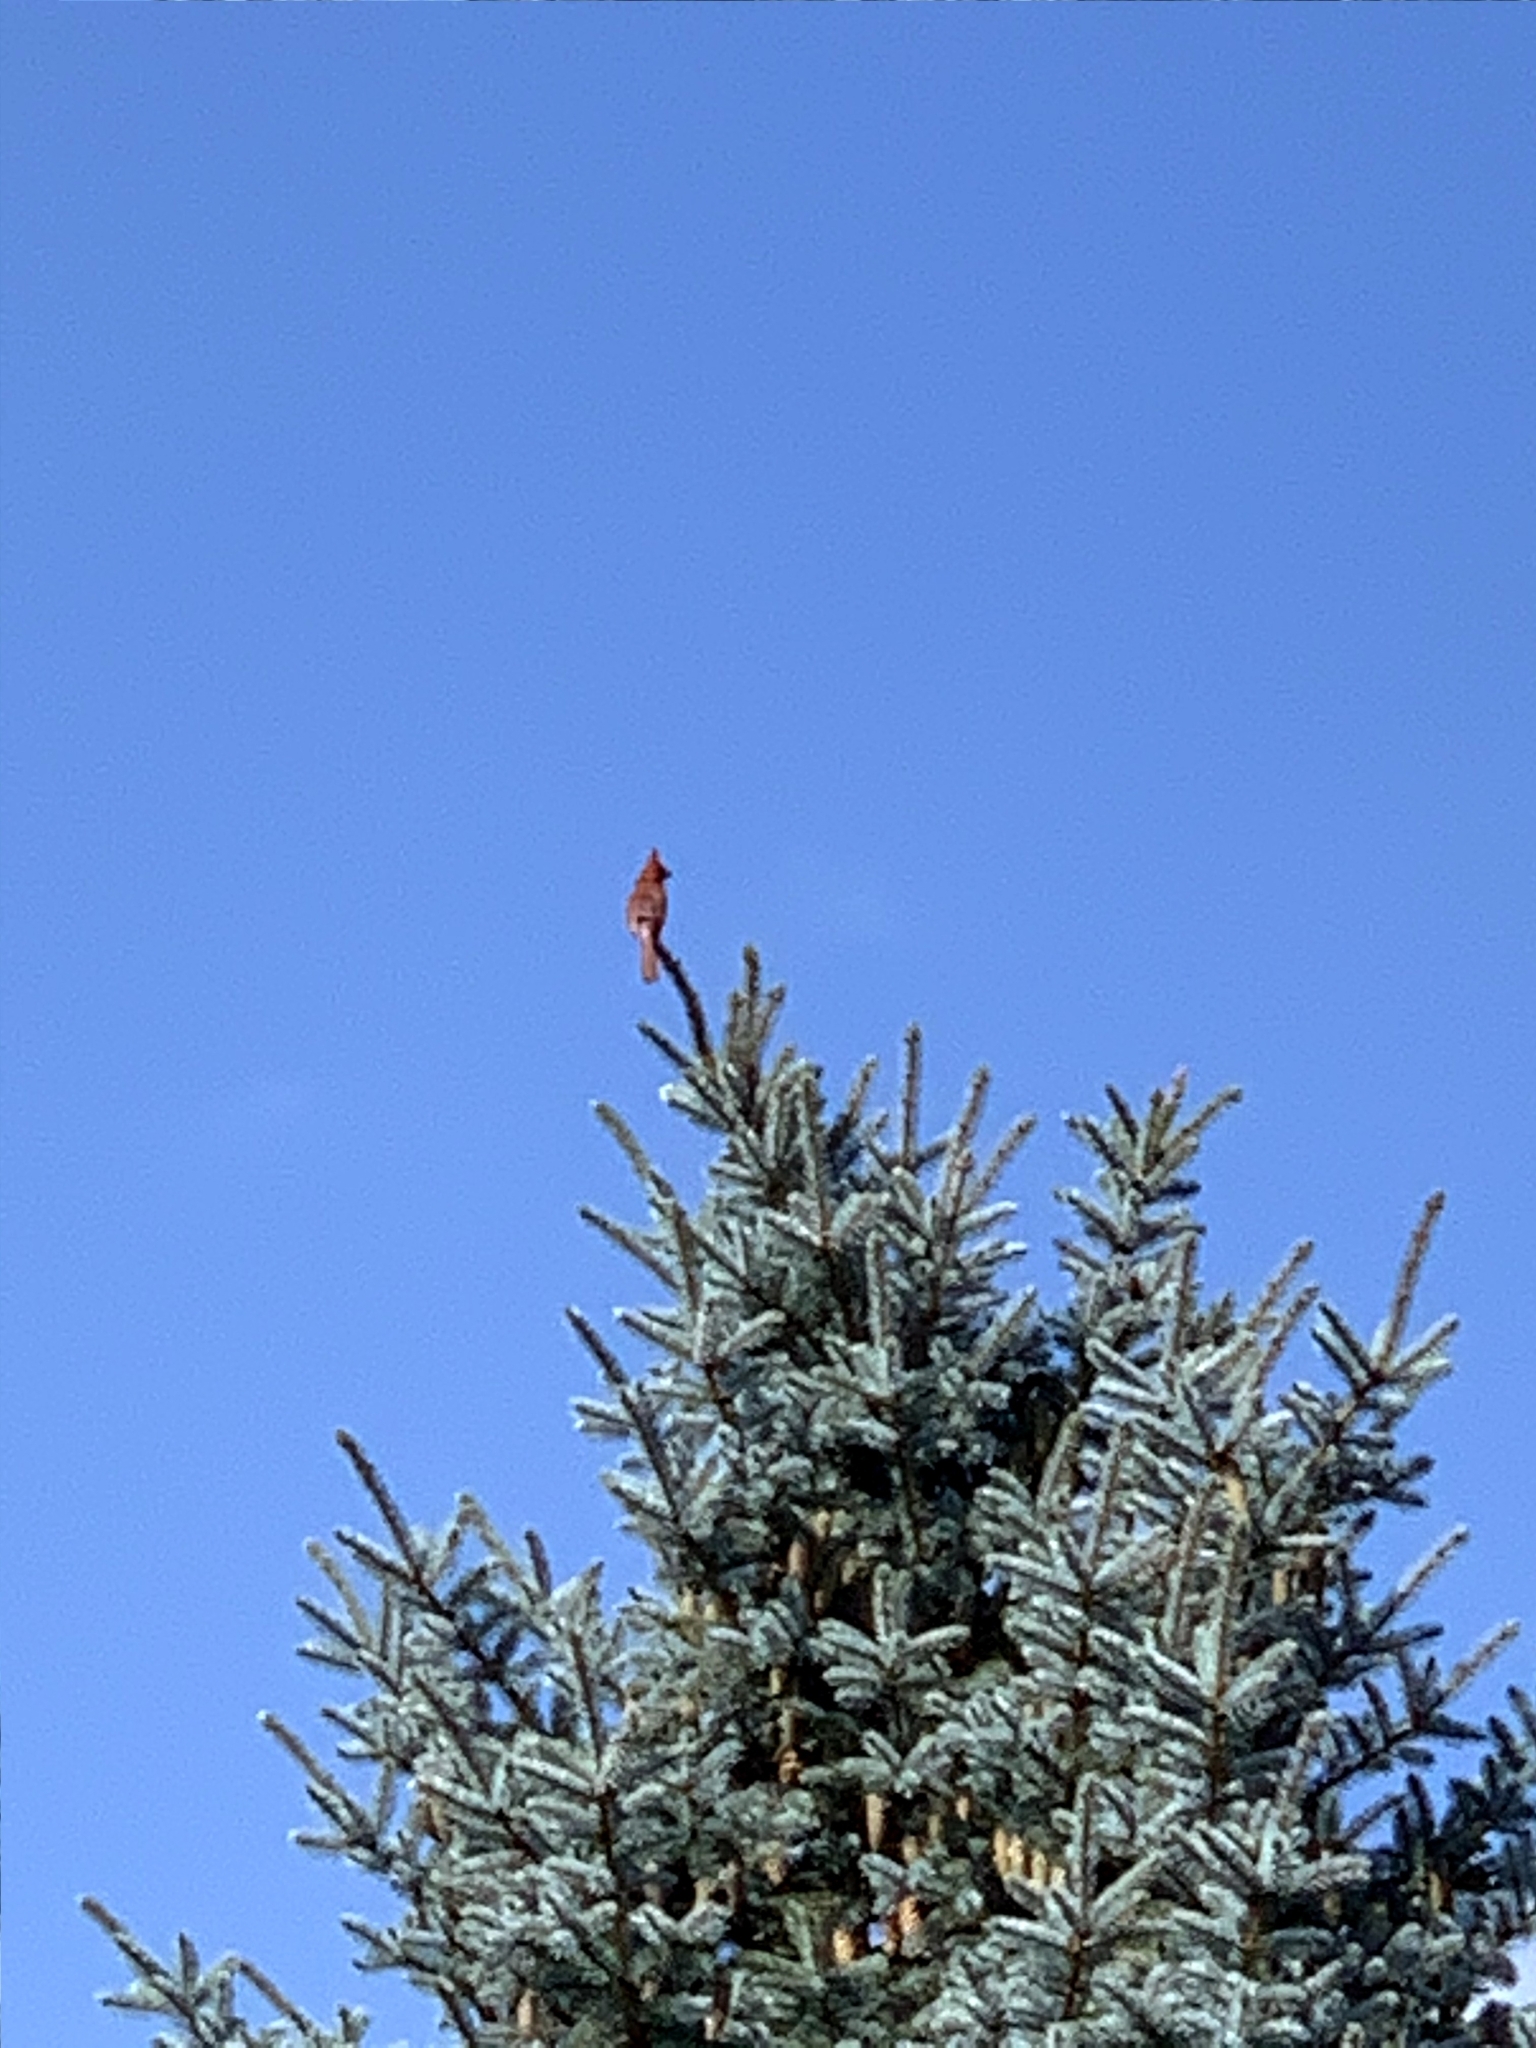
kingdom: Animalia
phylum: Chordata
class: Aves
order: Passeriformes
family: Cardinalidae
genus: Cardinalis
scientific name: Cardinalis cardinalis
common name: Northern cardinal
